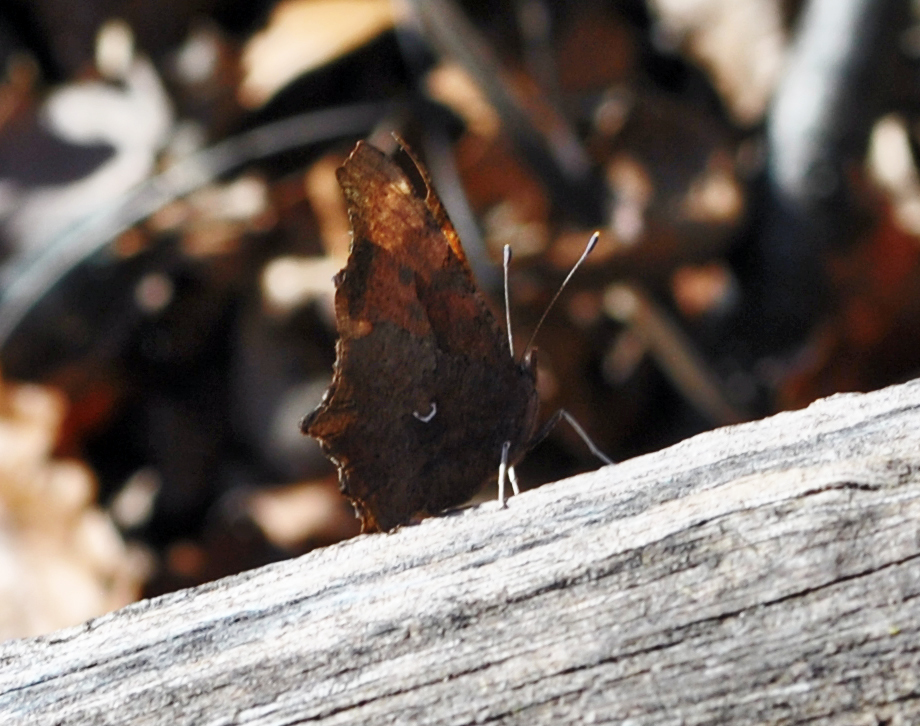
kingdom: Animalia
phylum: Arthropoda
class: Insecta
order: Lepidoptera
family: Nymphalidae
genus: Polygonia
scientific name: Polygonia comma
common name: Eastern comma
